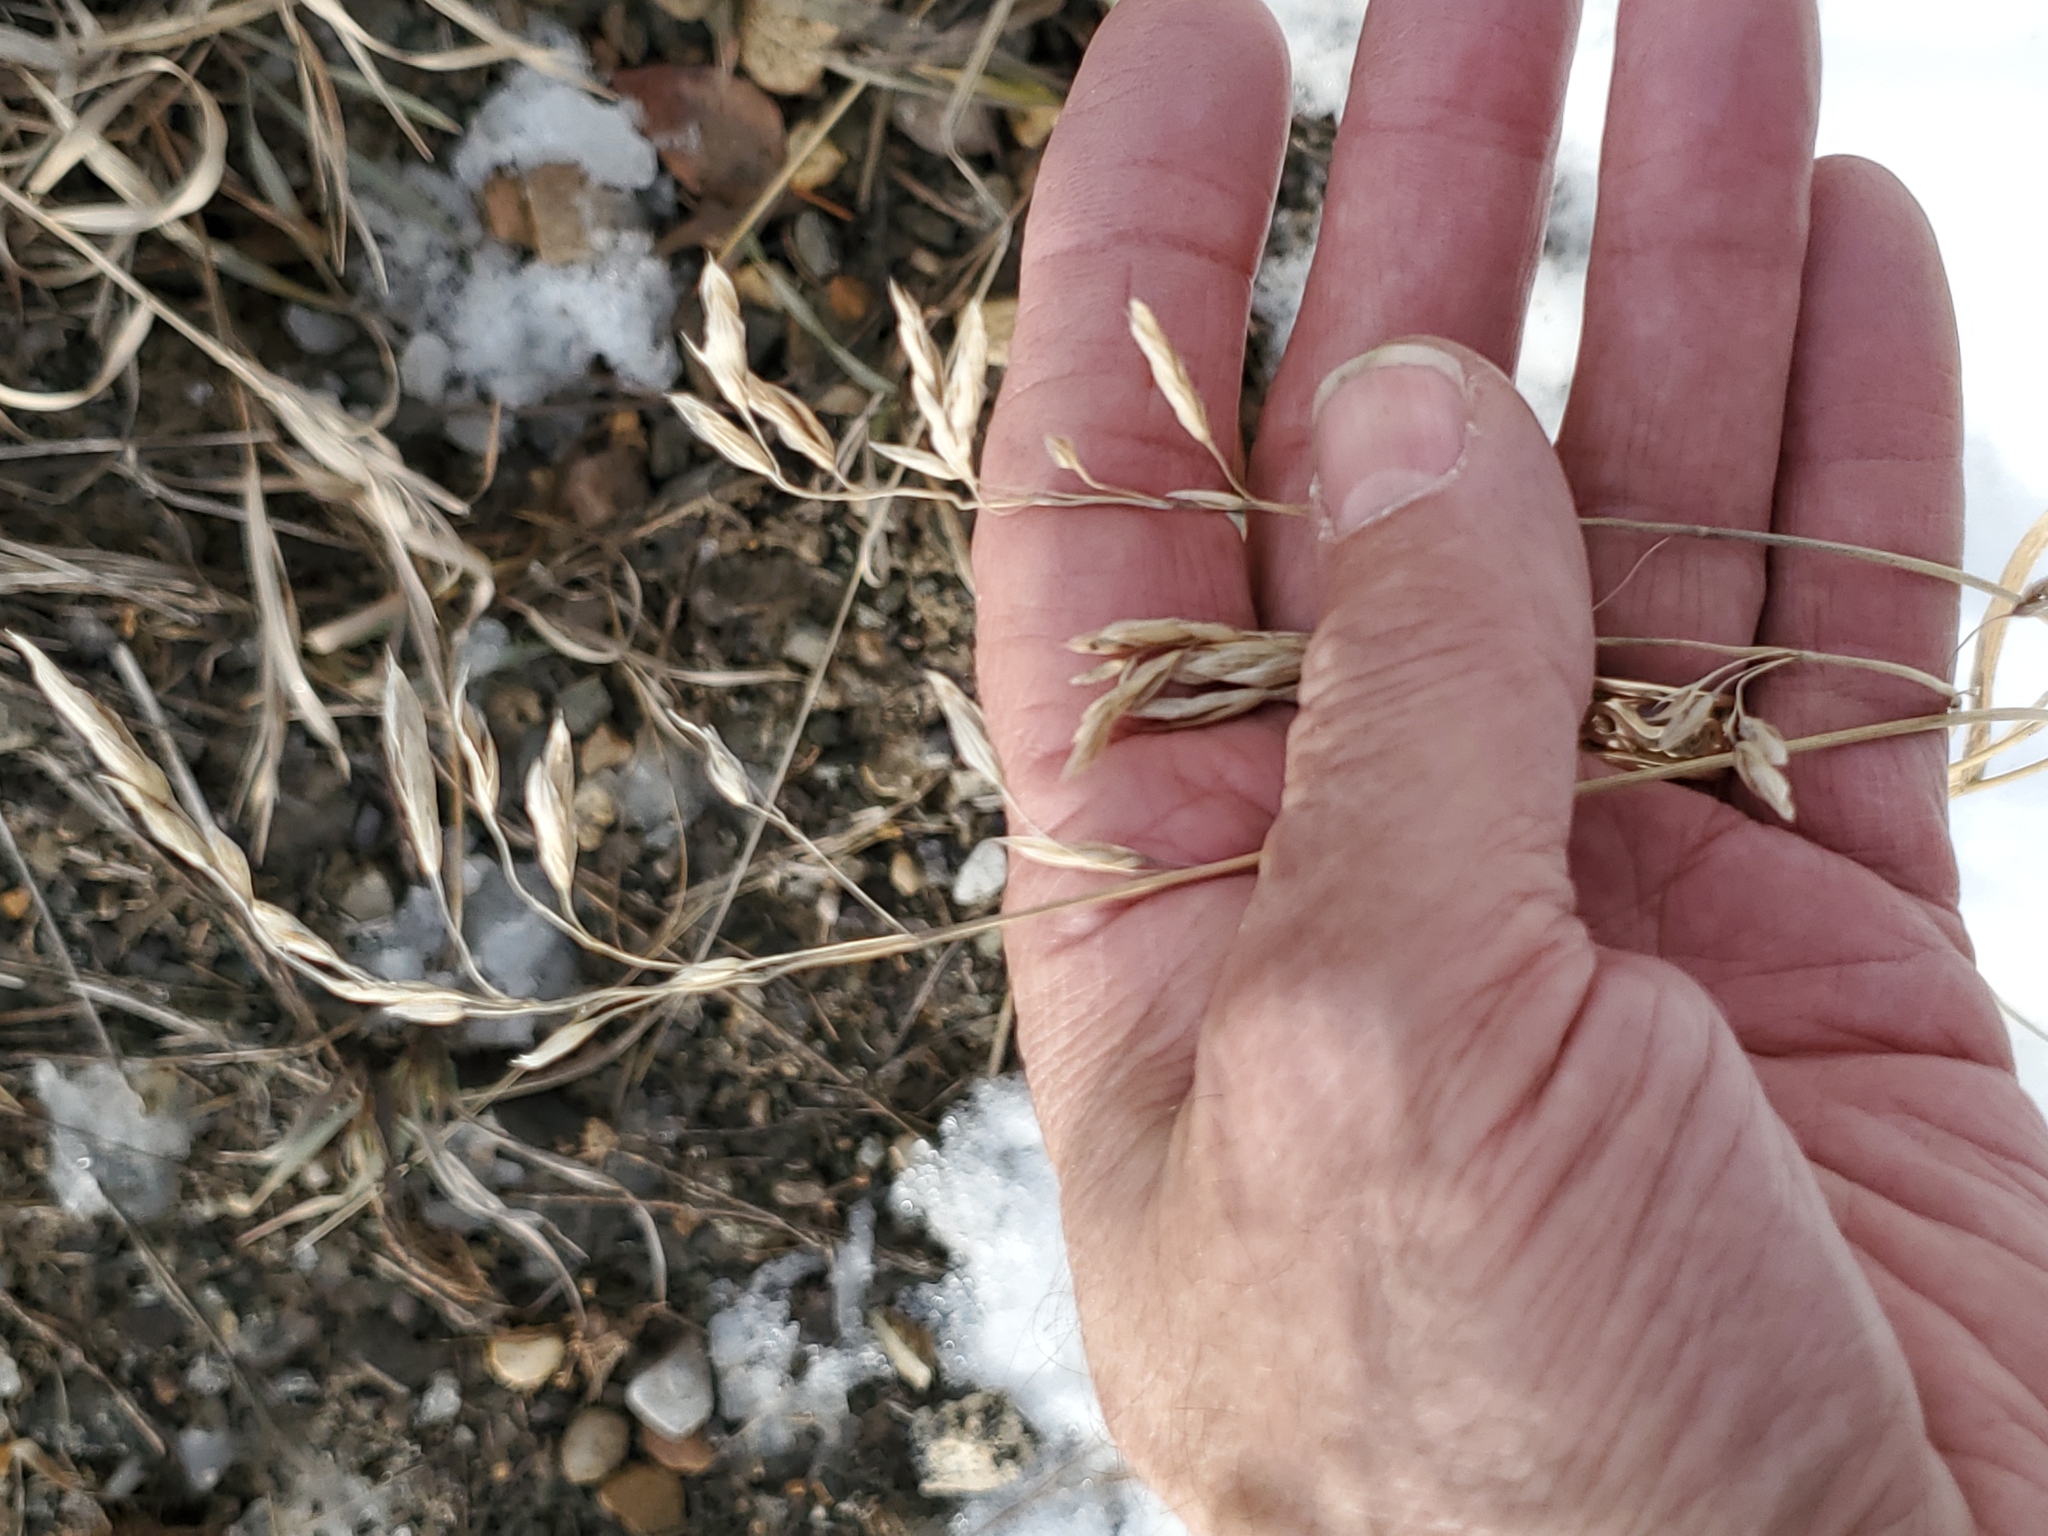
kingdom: Plantae
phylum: Tracheophyta
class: Liliopsida
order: Poales
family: Poaceae
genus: Bromus
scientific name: Bromus inermis
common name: Smooth brome
